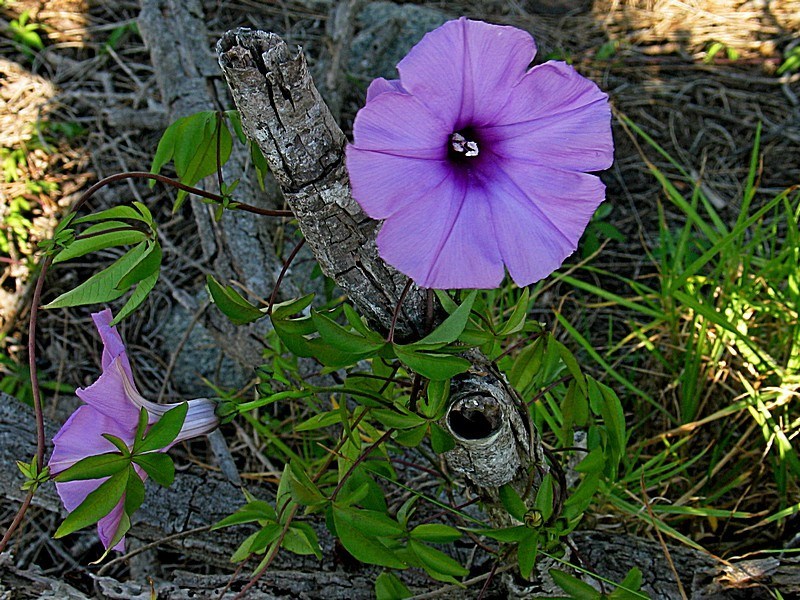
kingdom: Plantae
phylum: Tracheophyta
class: Magnoliopsida
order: Solanales
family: Convolvulaceae
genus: Ipomoea
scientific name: Ipomoea cairica
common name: Mile a minute vine
